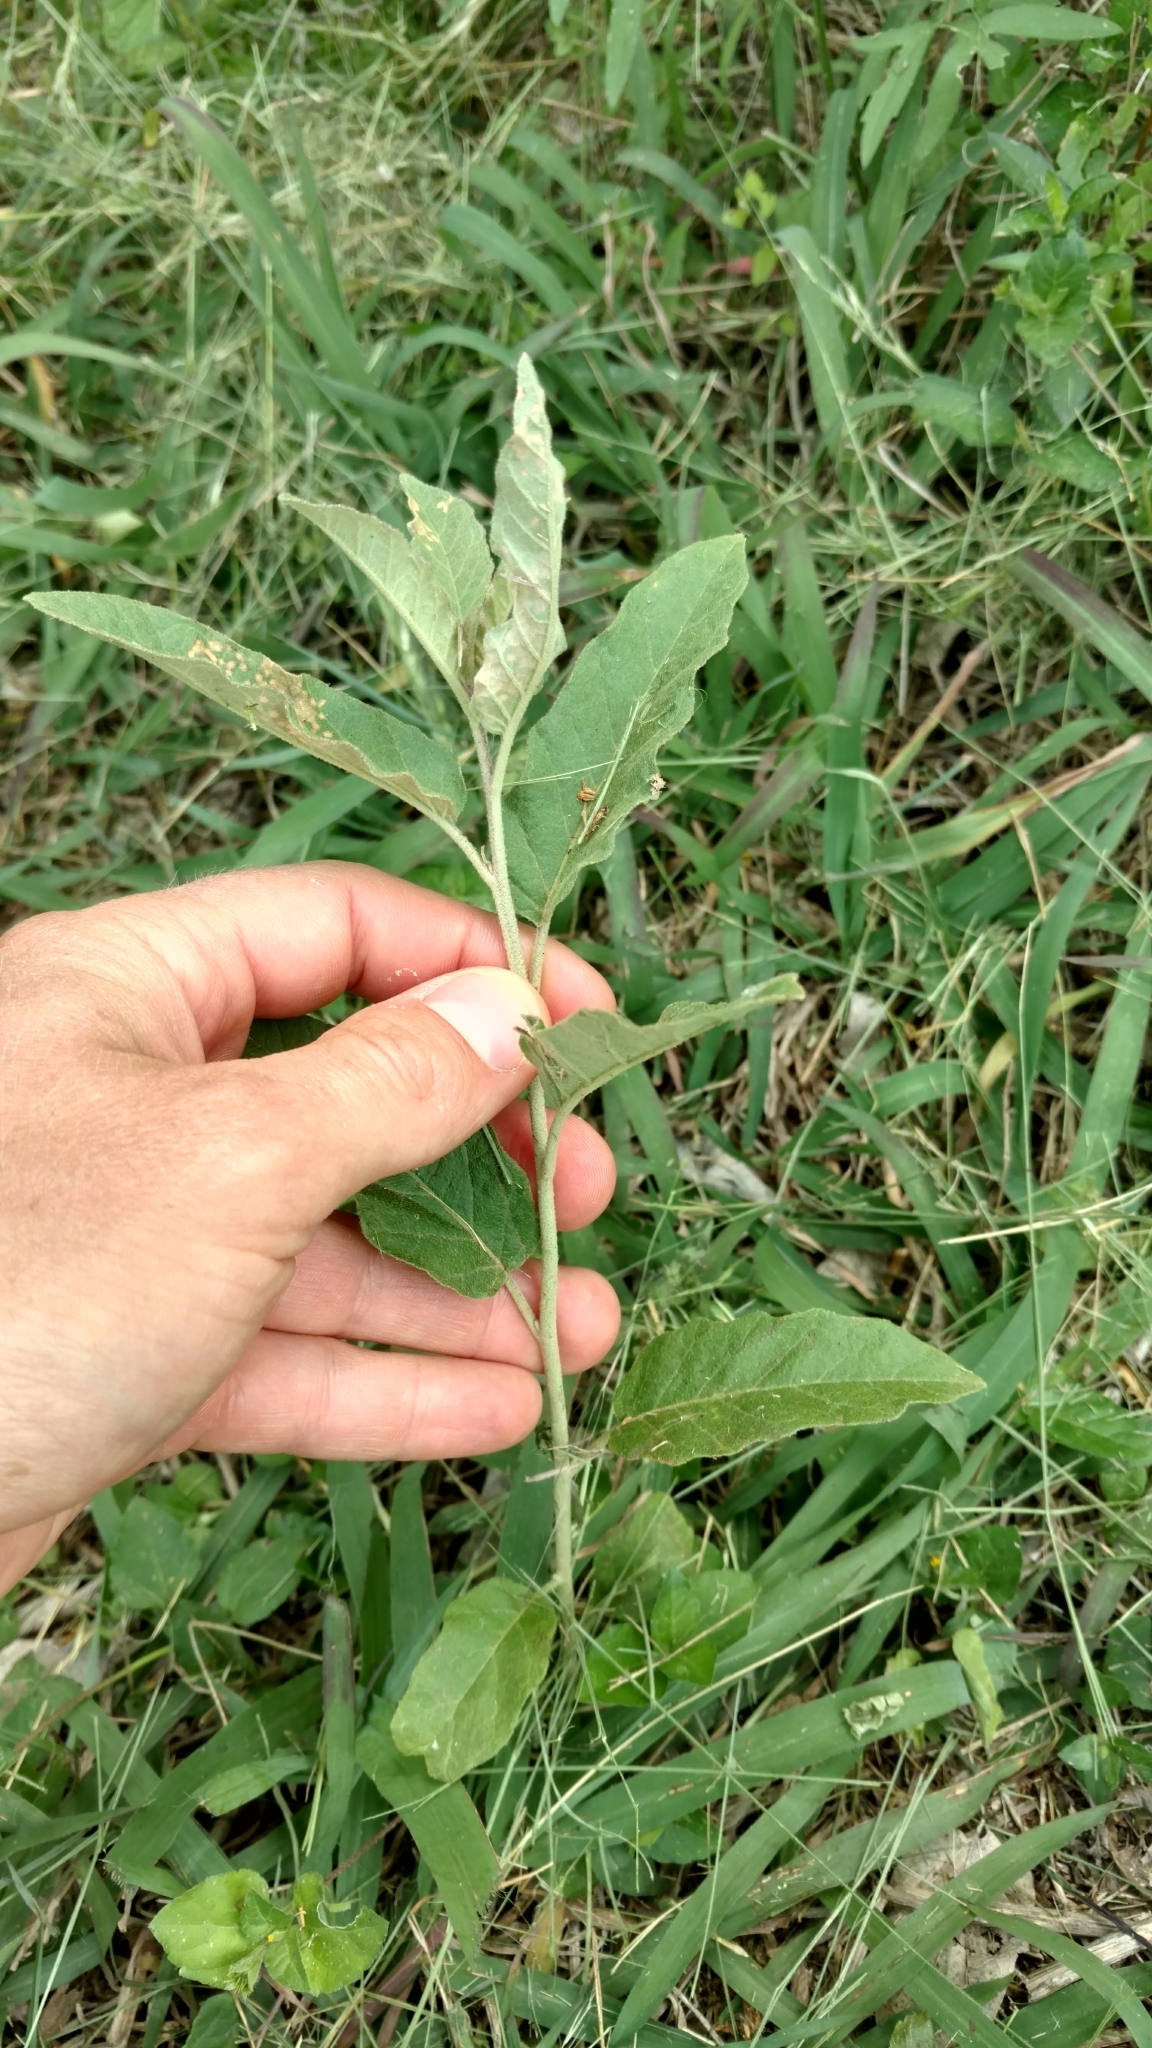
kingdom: Plantae
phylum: Tracheophyta
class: Magnoliopsida
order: Solanales
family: Solanaceae
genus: Solanum
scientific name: Solanum elaeagnifolium
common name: Silverleaf nightshade
